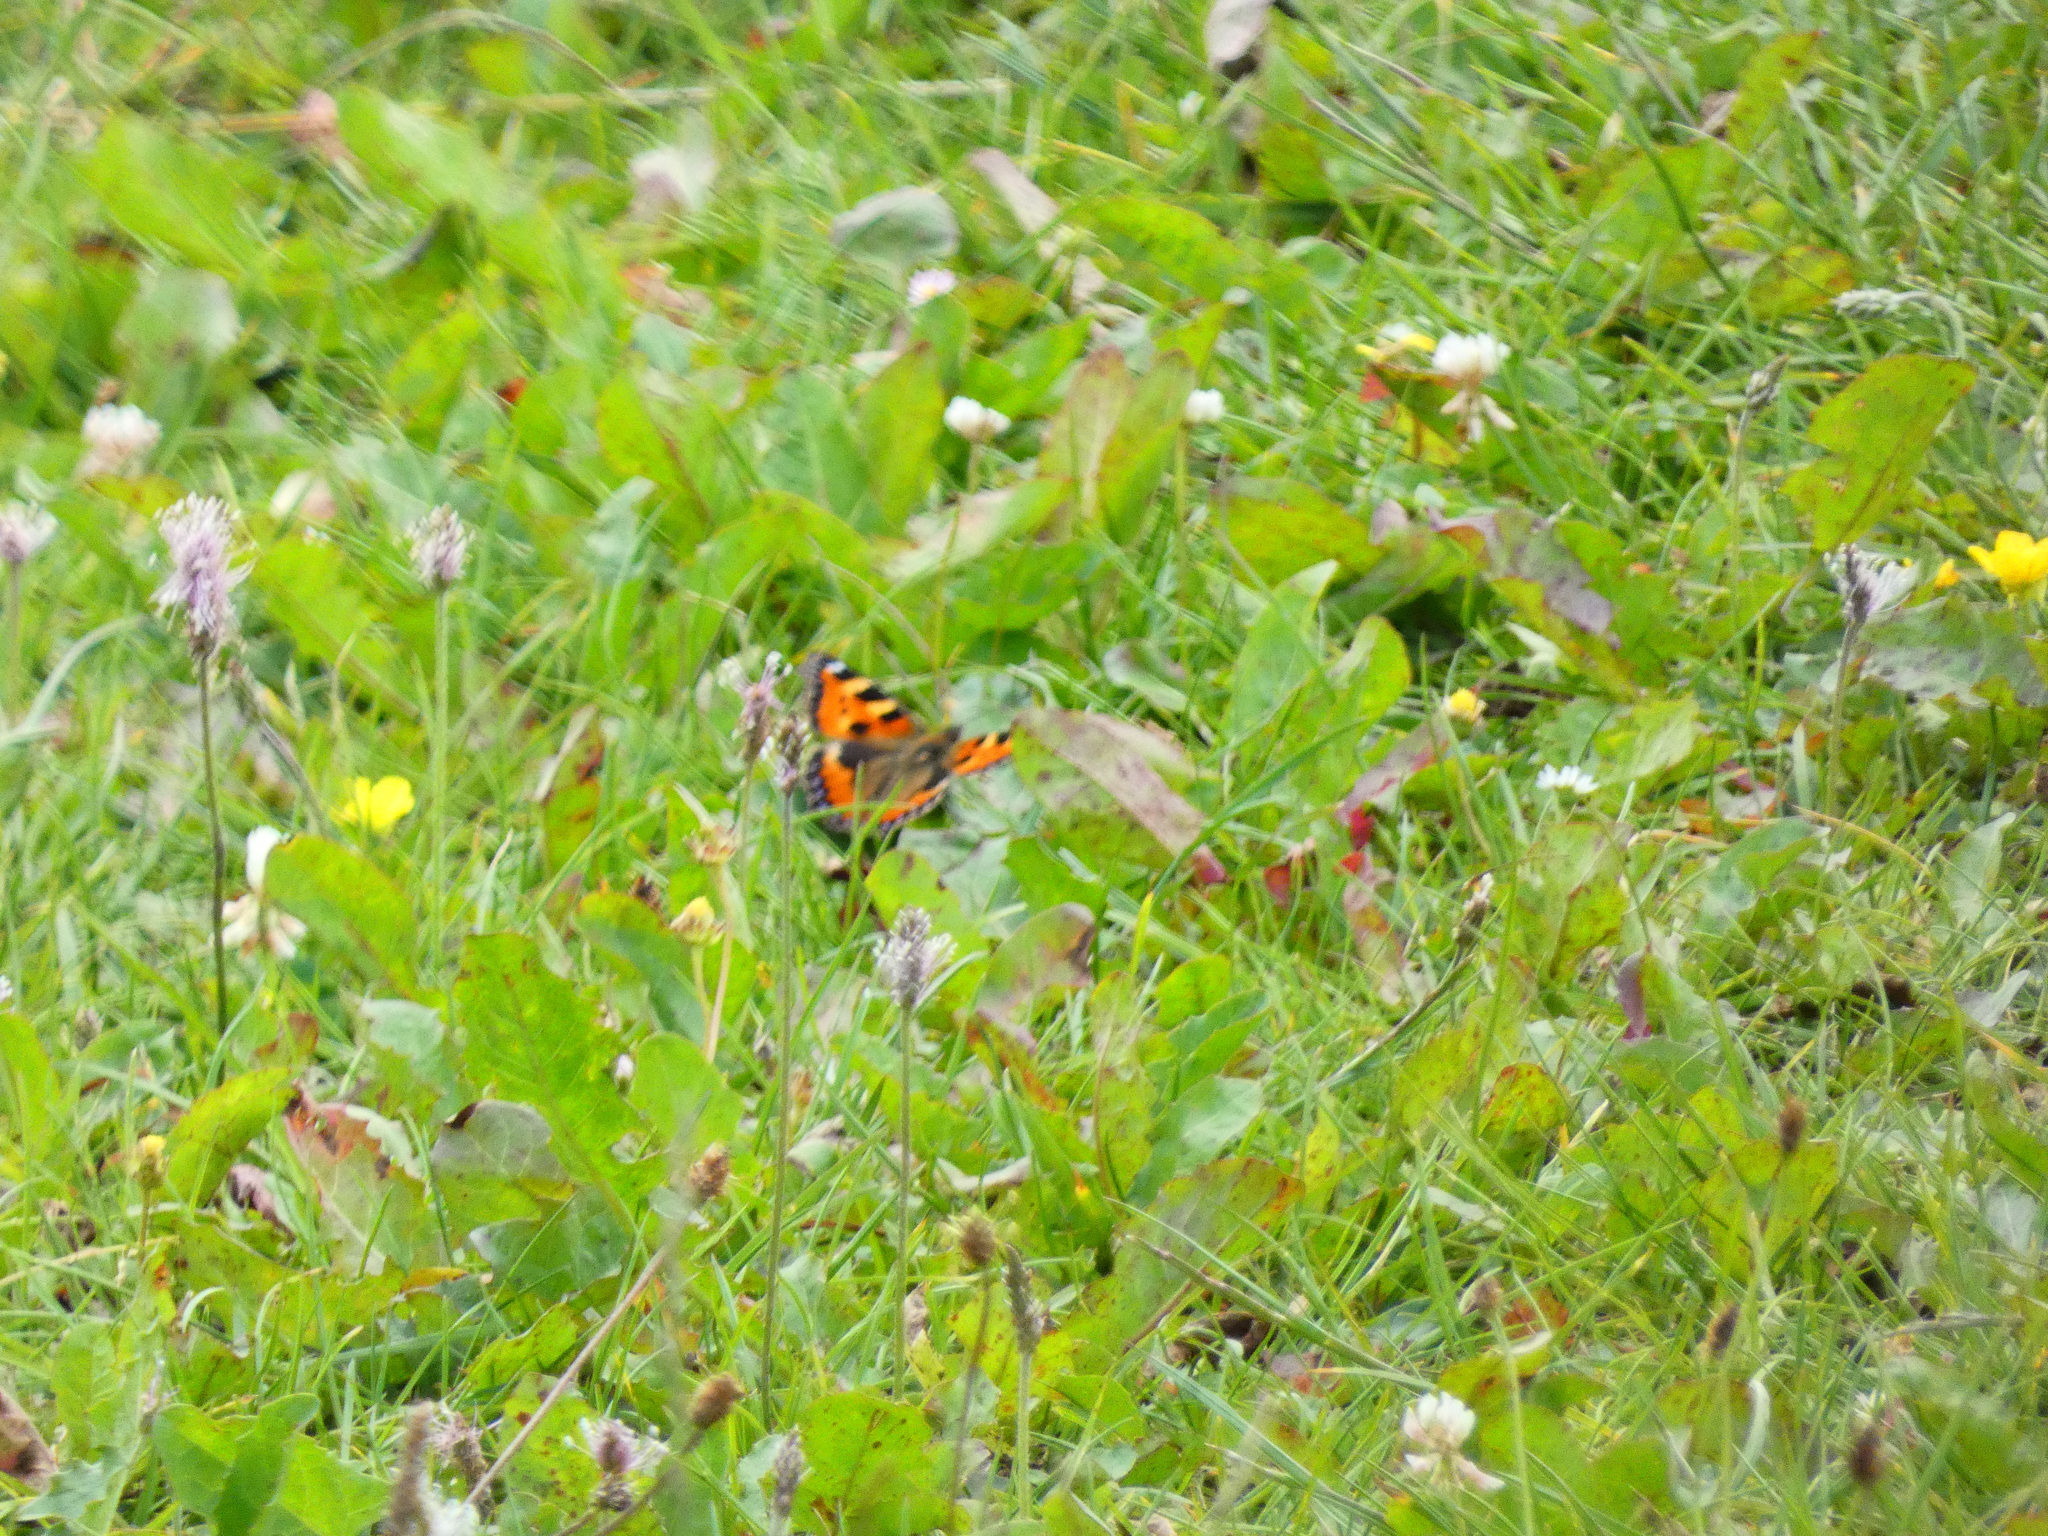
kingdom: Animalia
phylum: Arthropoda
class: Insecta
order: Lepidoptera
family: Nymphalidae
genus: Aglais
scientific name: Aglais urticae
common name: Small tortoiseshell
